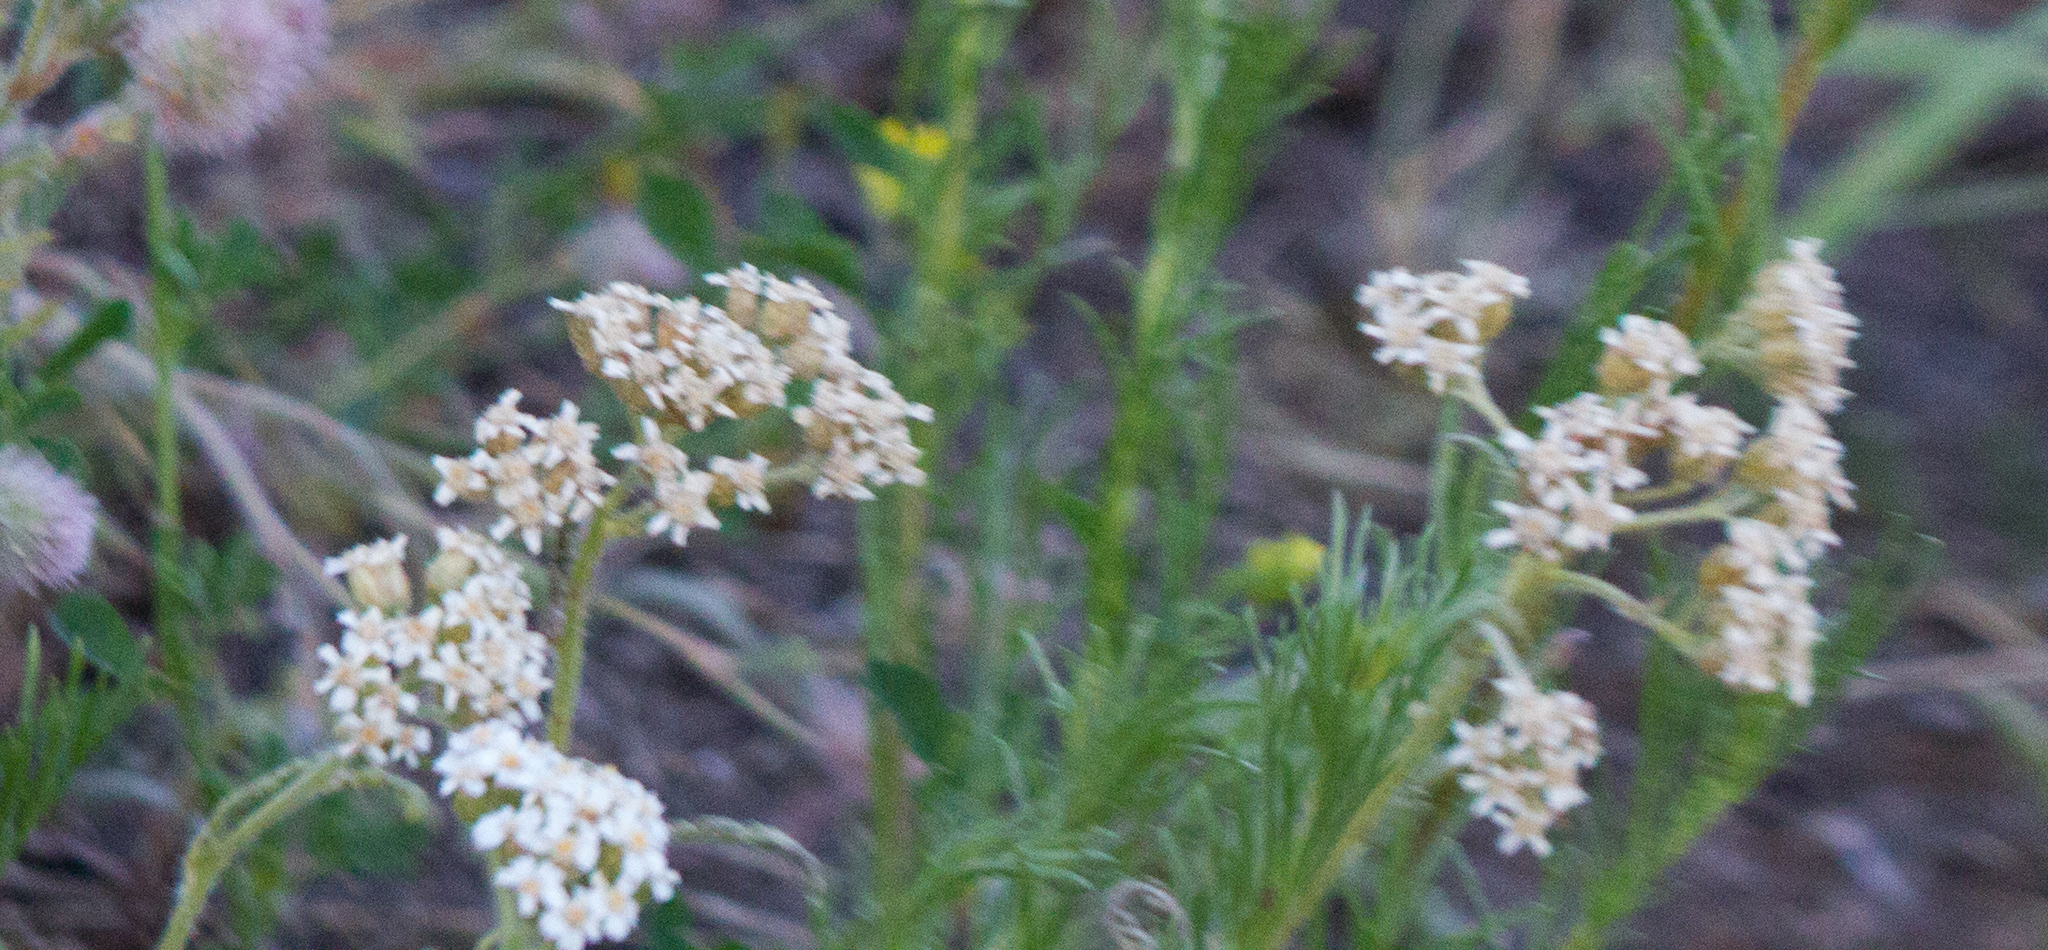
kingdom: Plantae
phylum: Tracheophyta
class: Magnoliopsida
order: Asterales
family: Asteraceae
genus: Achillea
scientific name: Achillea millefolium
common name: Yarrow
